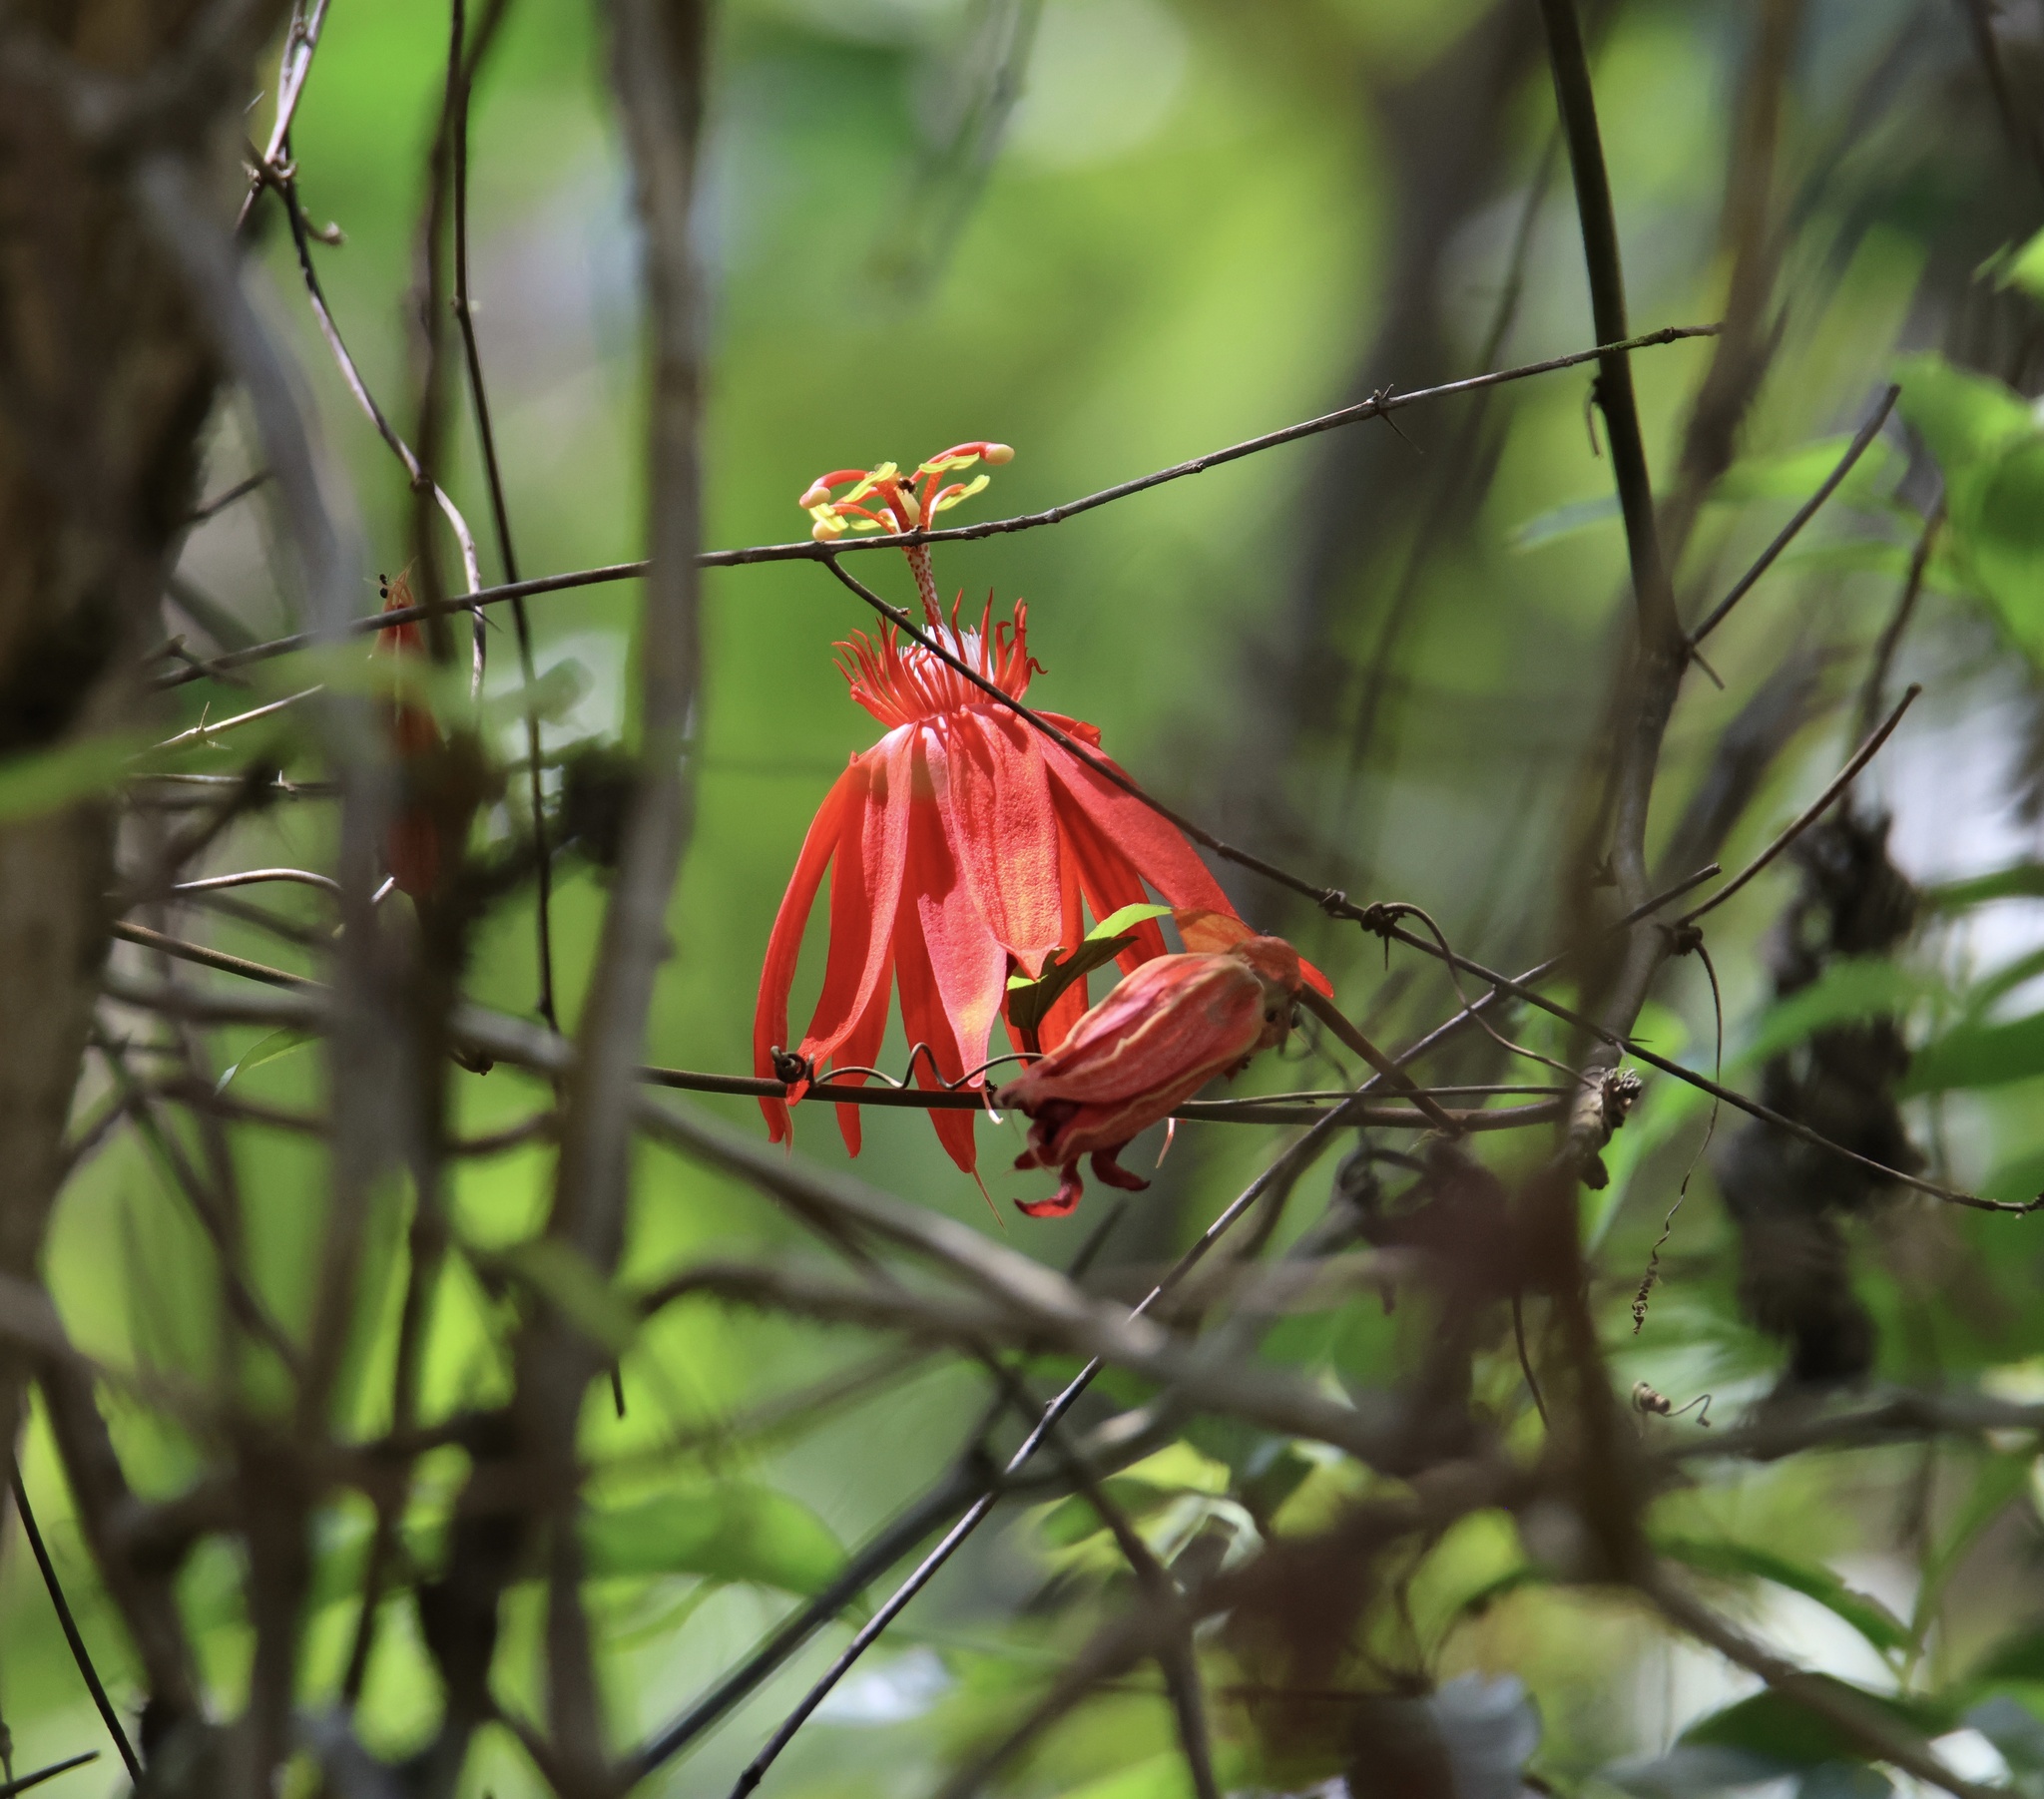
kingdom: Plantae
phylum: Tracheophyta
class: Magnoliopsida
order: Malpighiales
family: Passifloraceae
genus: Passiflora
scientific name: Passiflora vitifolia
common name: Perfumed passionflower
